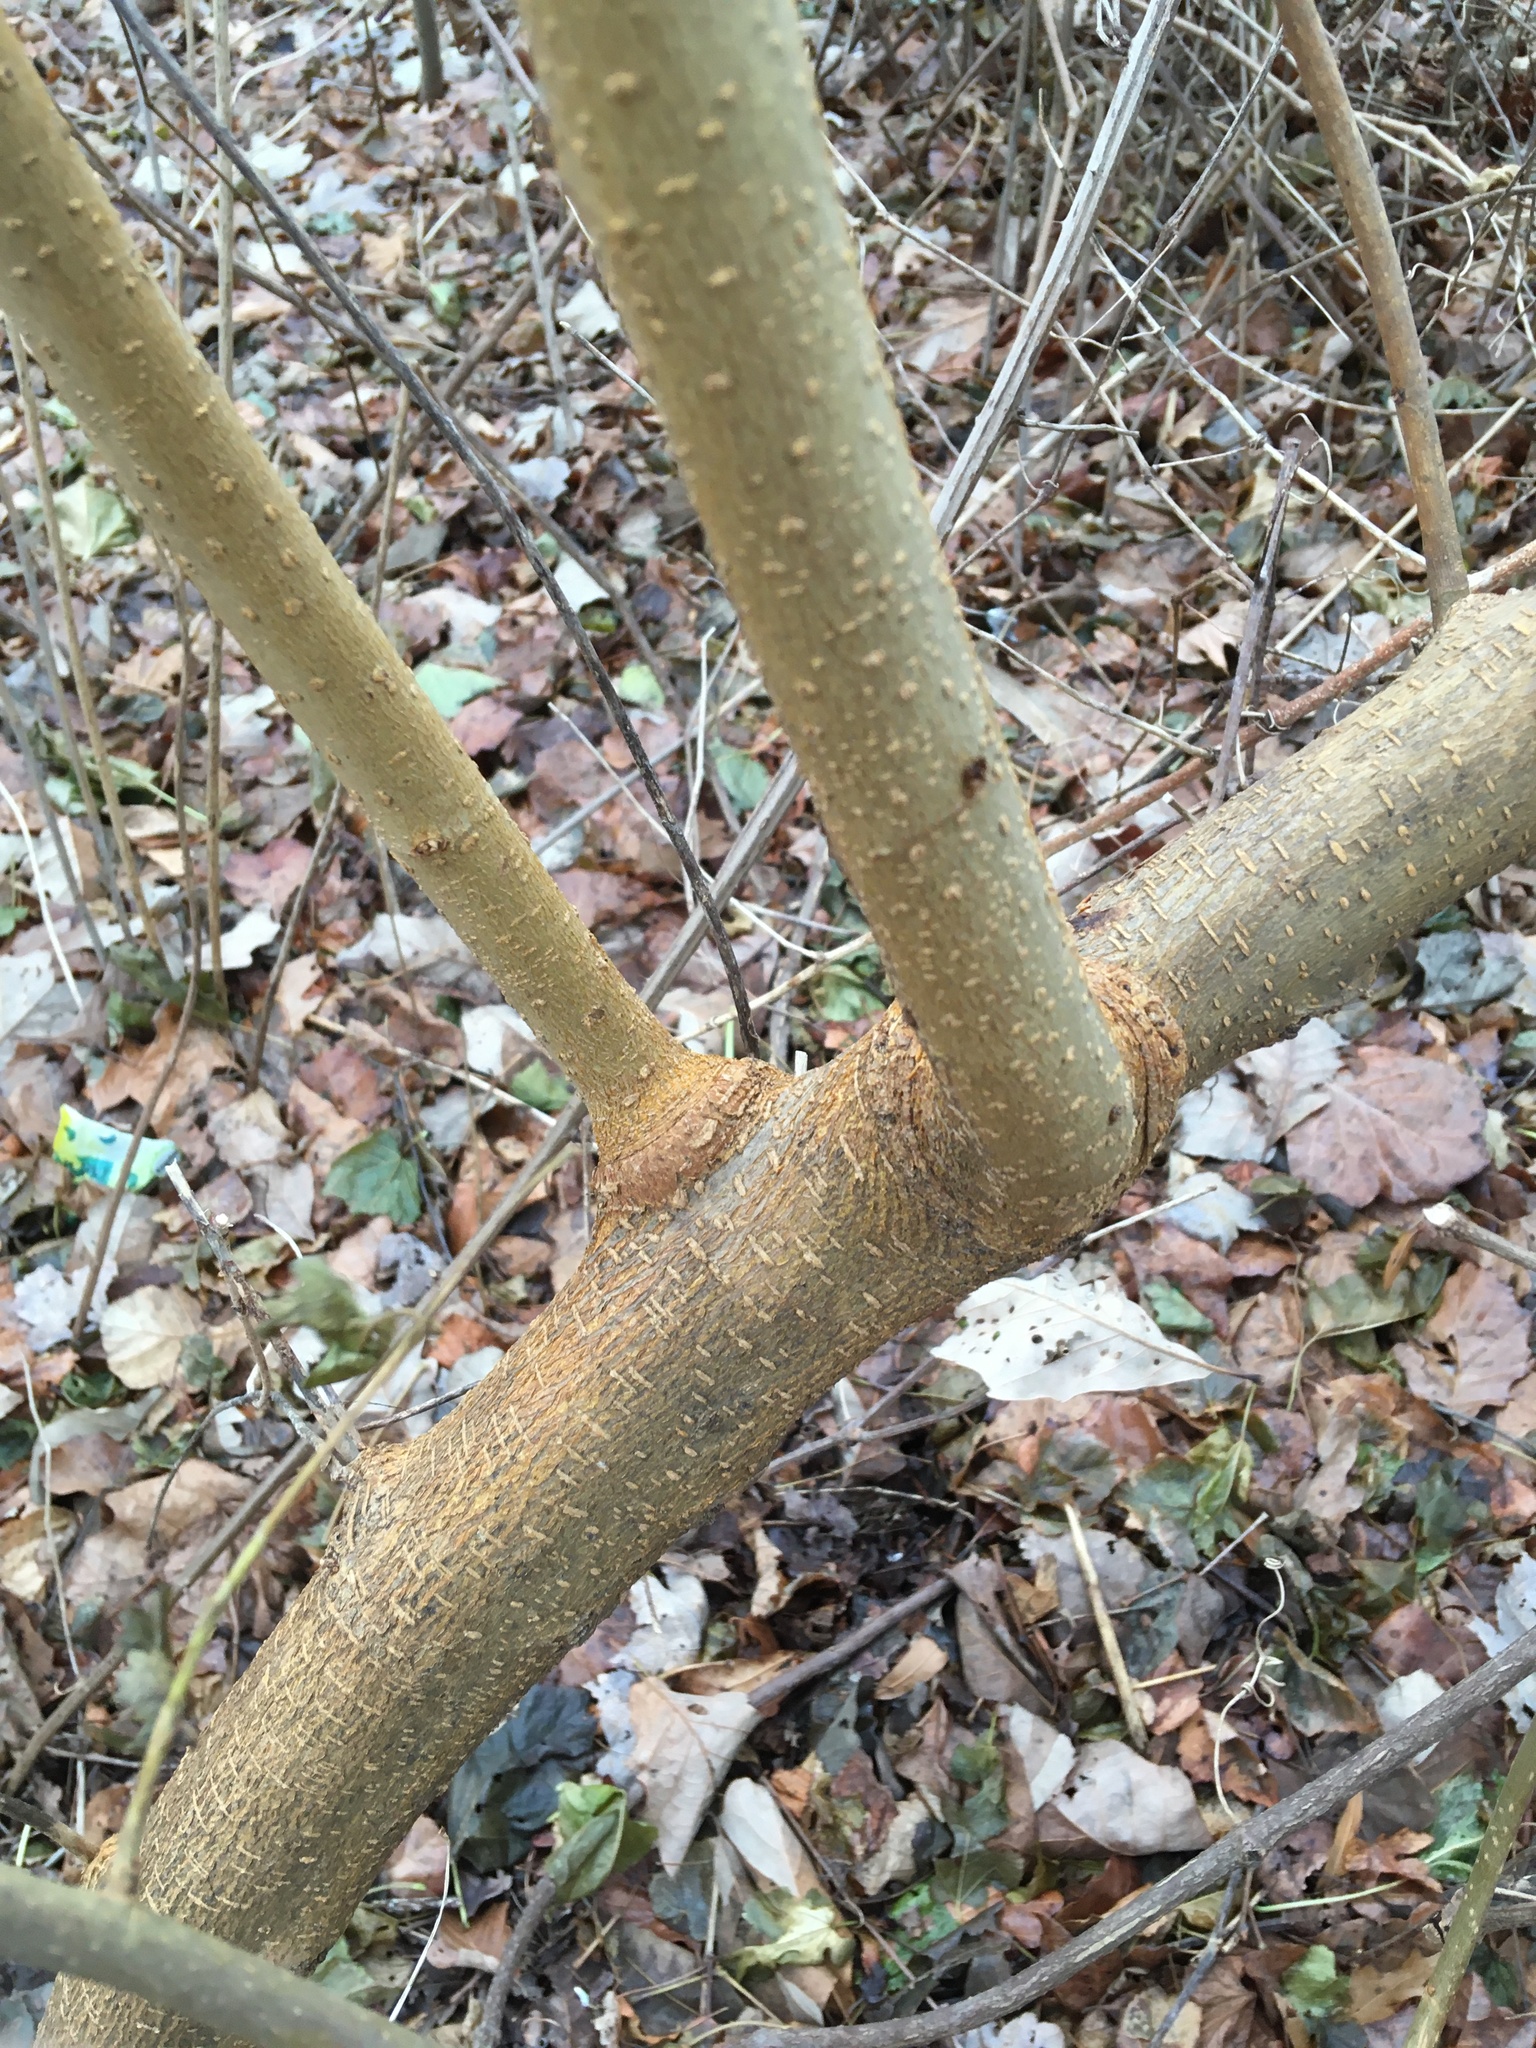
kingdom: Plantae
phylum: Tracheophyta
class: Magnoliopsida
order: Rosales
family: Moraceae
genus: Morus
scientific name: Morus alba
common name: White mulberry
